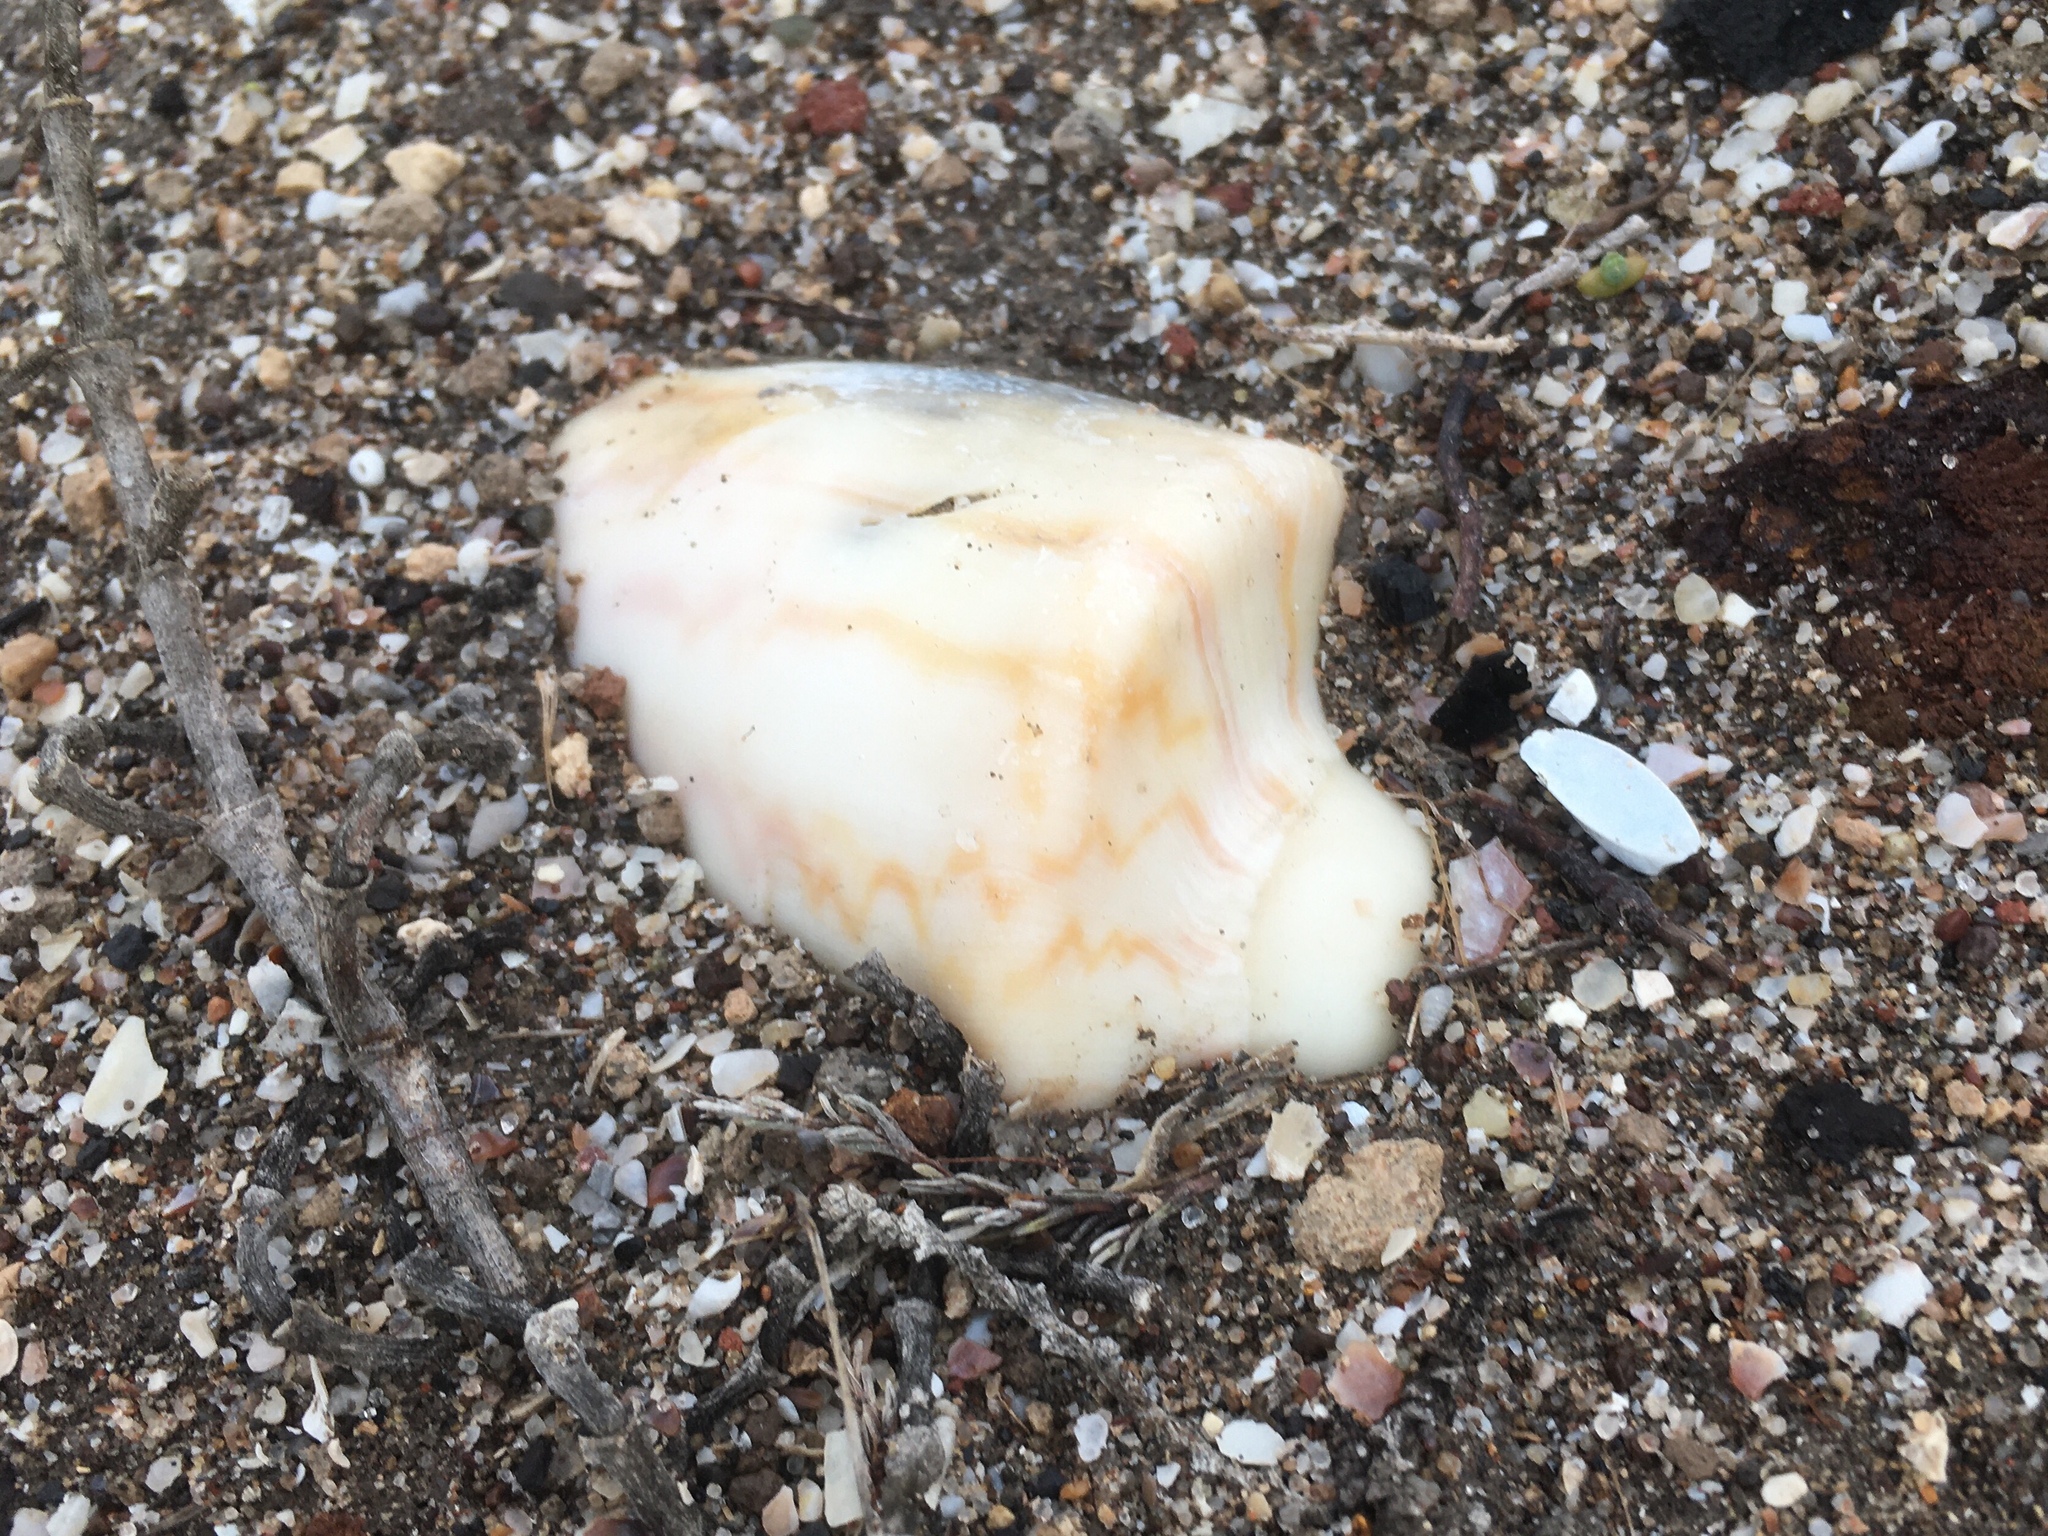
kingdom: Animalia
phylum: Mollusca
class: Gastropoda
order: Neogastropoda
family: Volutidae
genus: Zidona
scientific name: Zidona dufresnii
